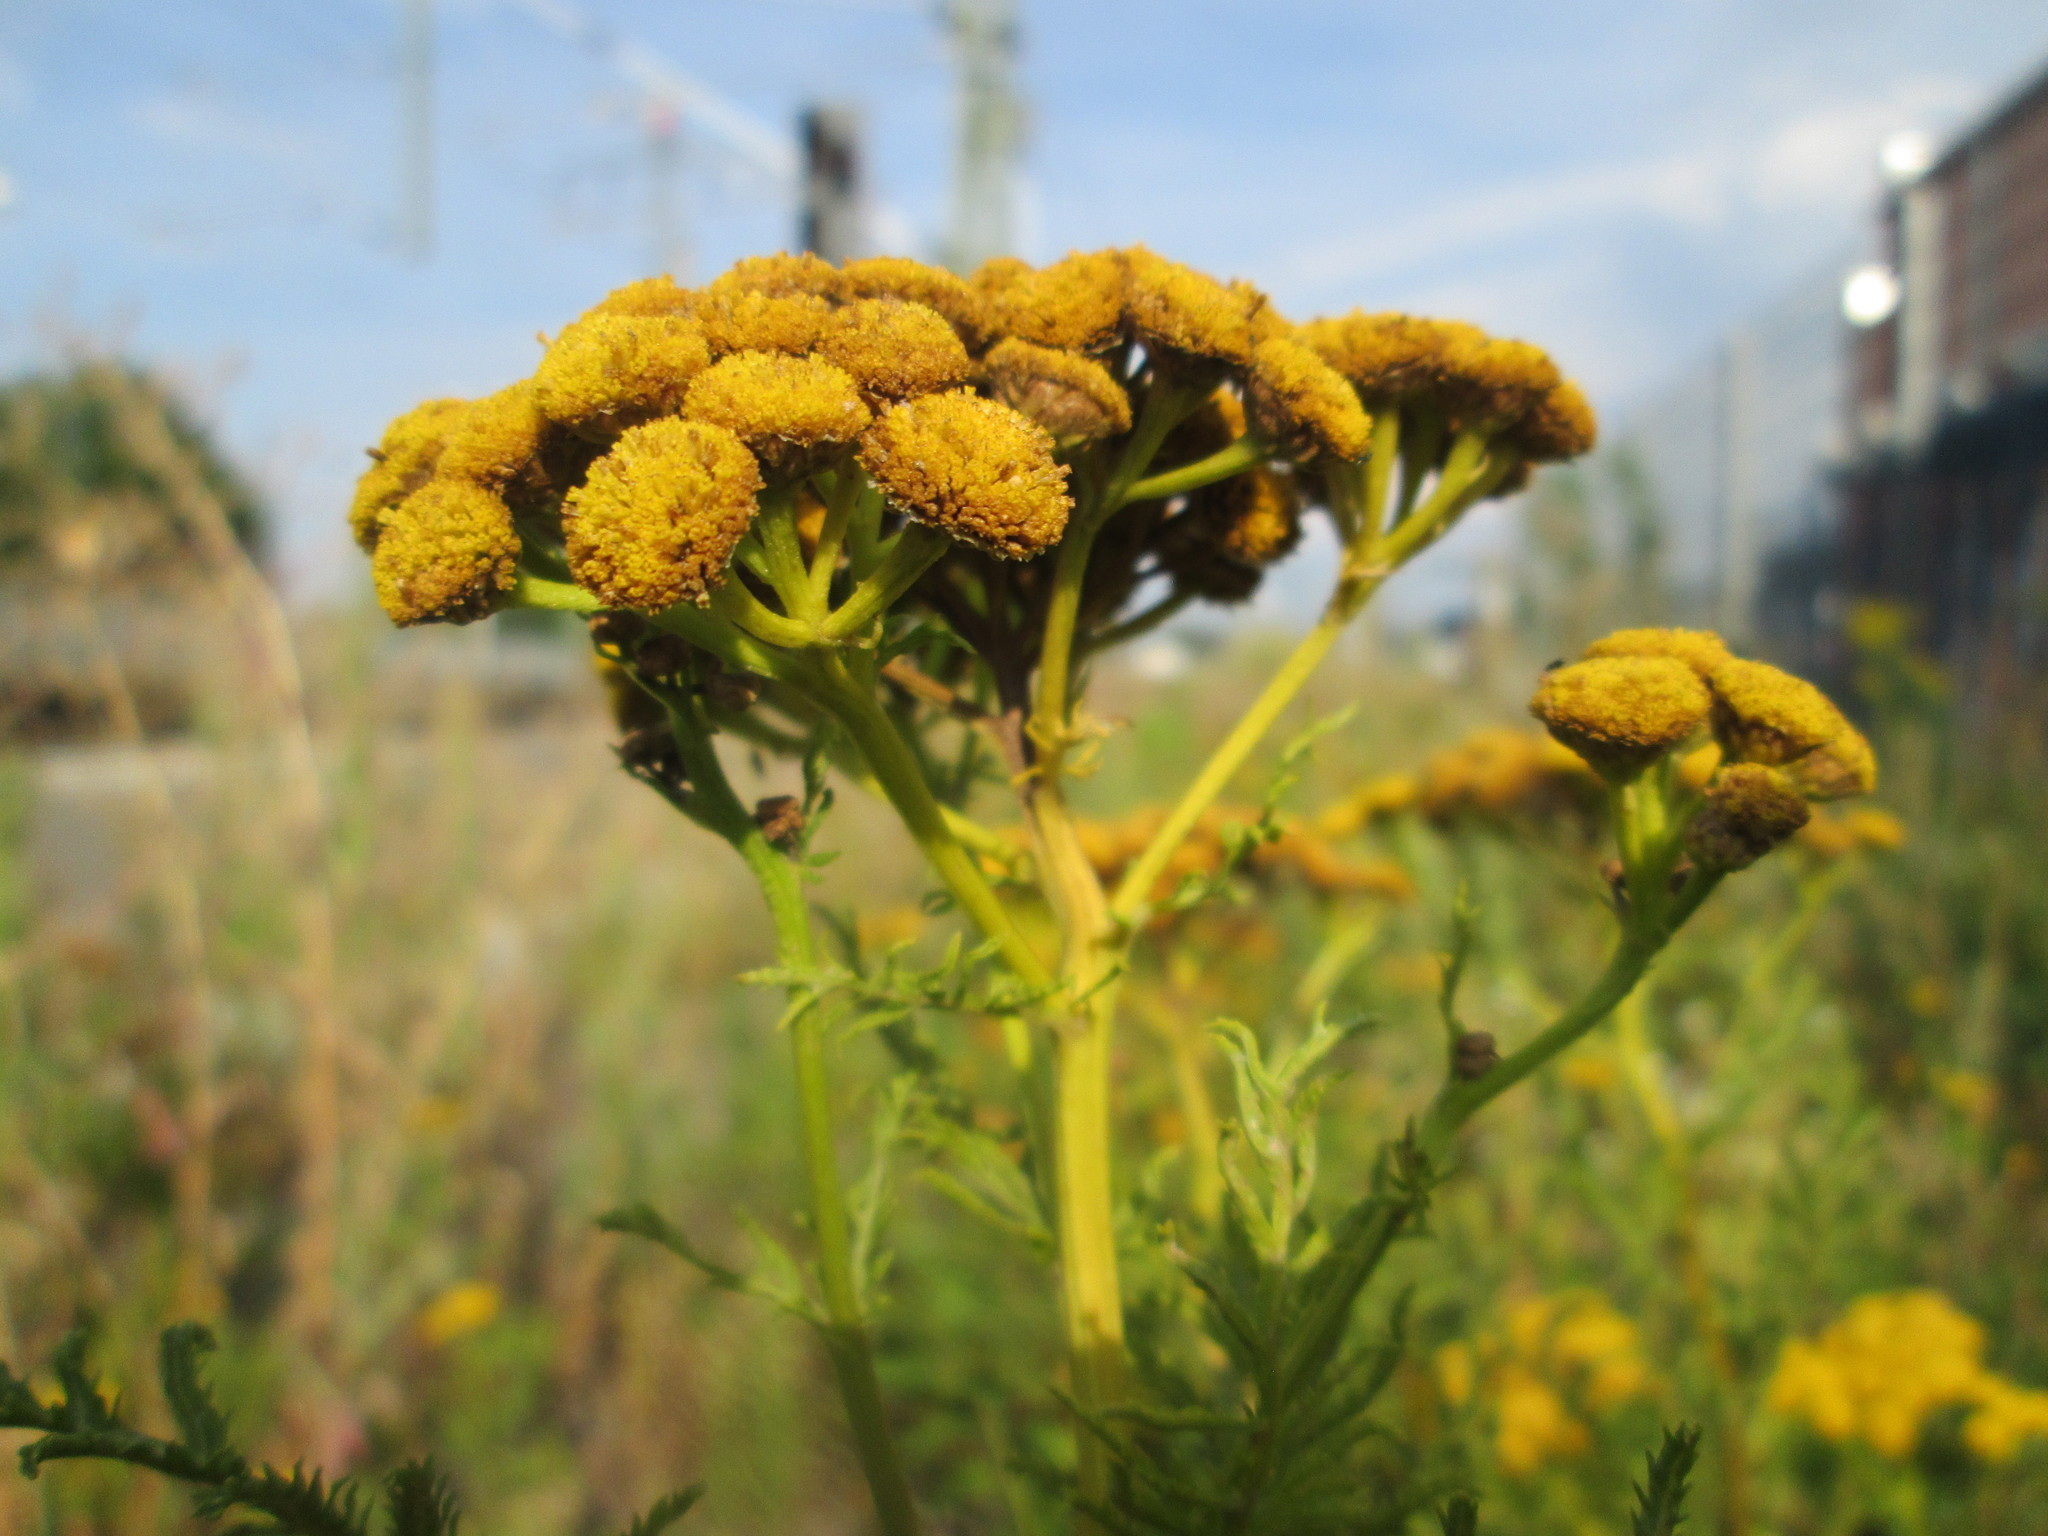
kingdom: Plantae
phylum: Tracheophyta
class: Magnoliopsida
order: Asterales
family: Asteraceae
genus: Tanacetum
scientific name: Tanacetum vulgare
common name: Common tansy
